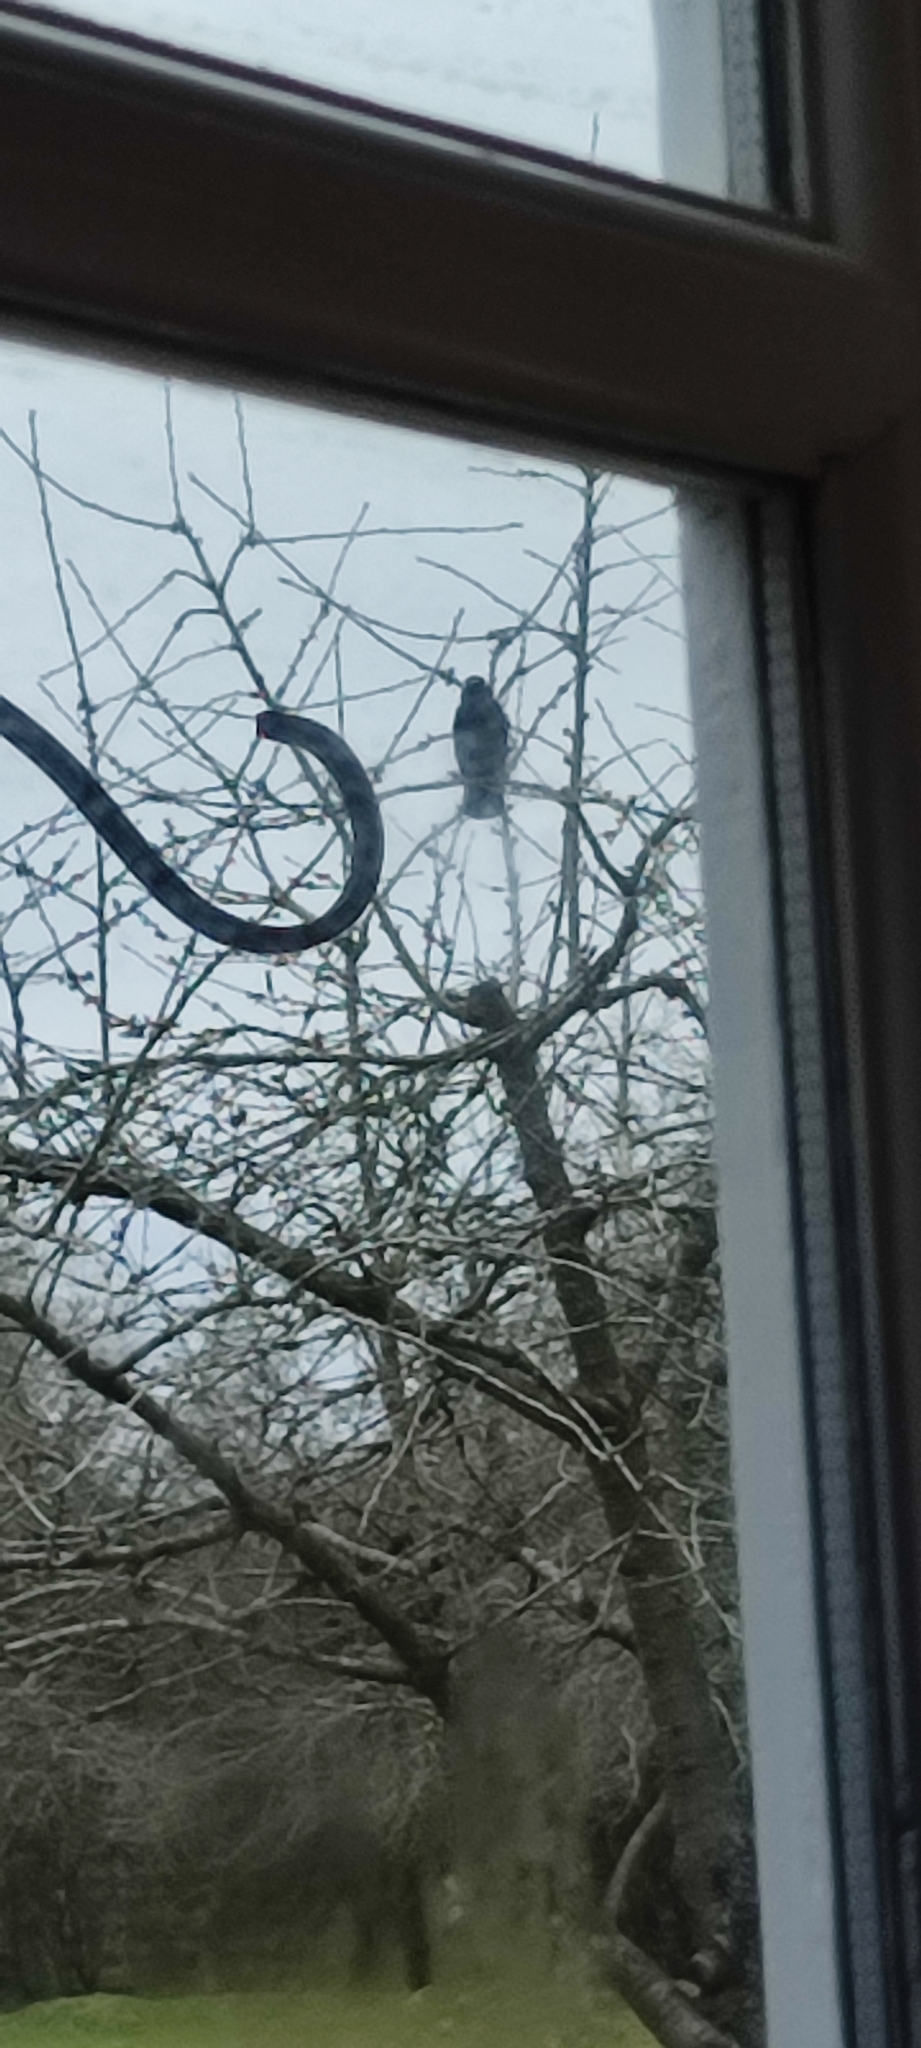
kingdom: Animalia
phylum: Chordata
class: Aves
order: Passeriformes
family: Corvidae
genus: Coloeus
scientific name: Coloeus monedula
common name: Western jackdaw
